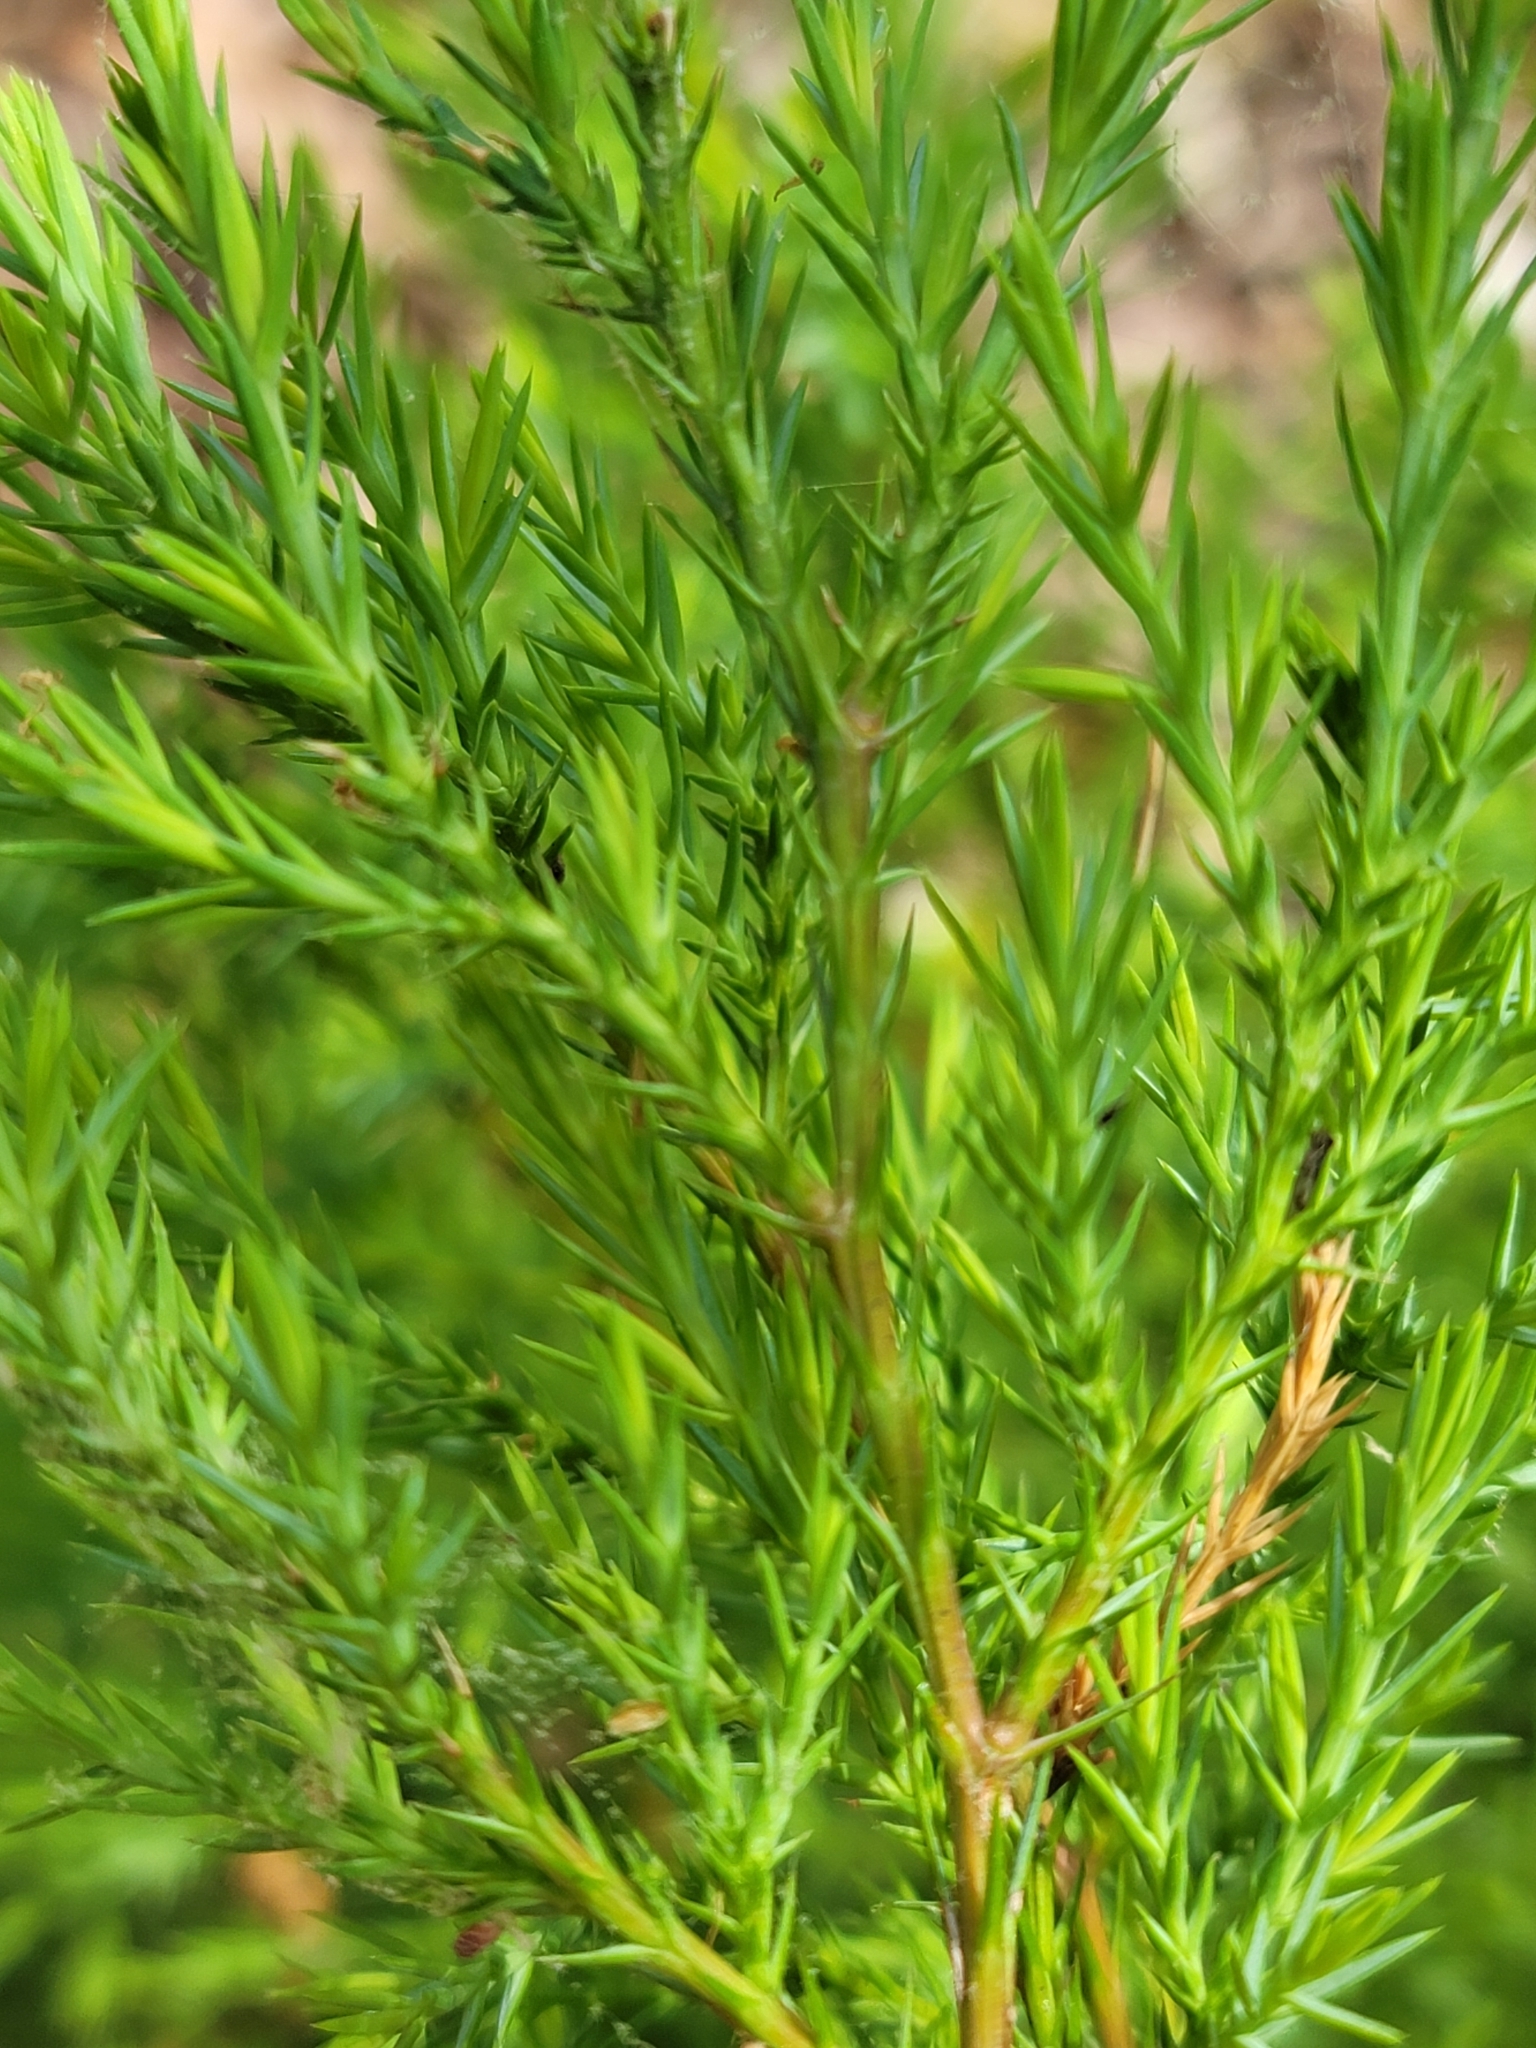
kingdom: Plantae
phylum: Tracheophyta
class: Pinopsida
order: Pinales
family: Cupressaceae
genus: Juniperus
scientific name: Juniperus virginiana
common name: Red juniper
